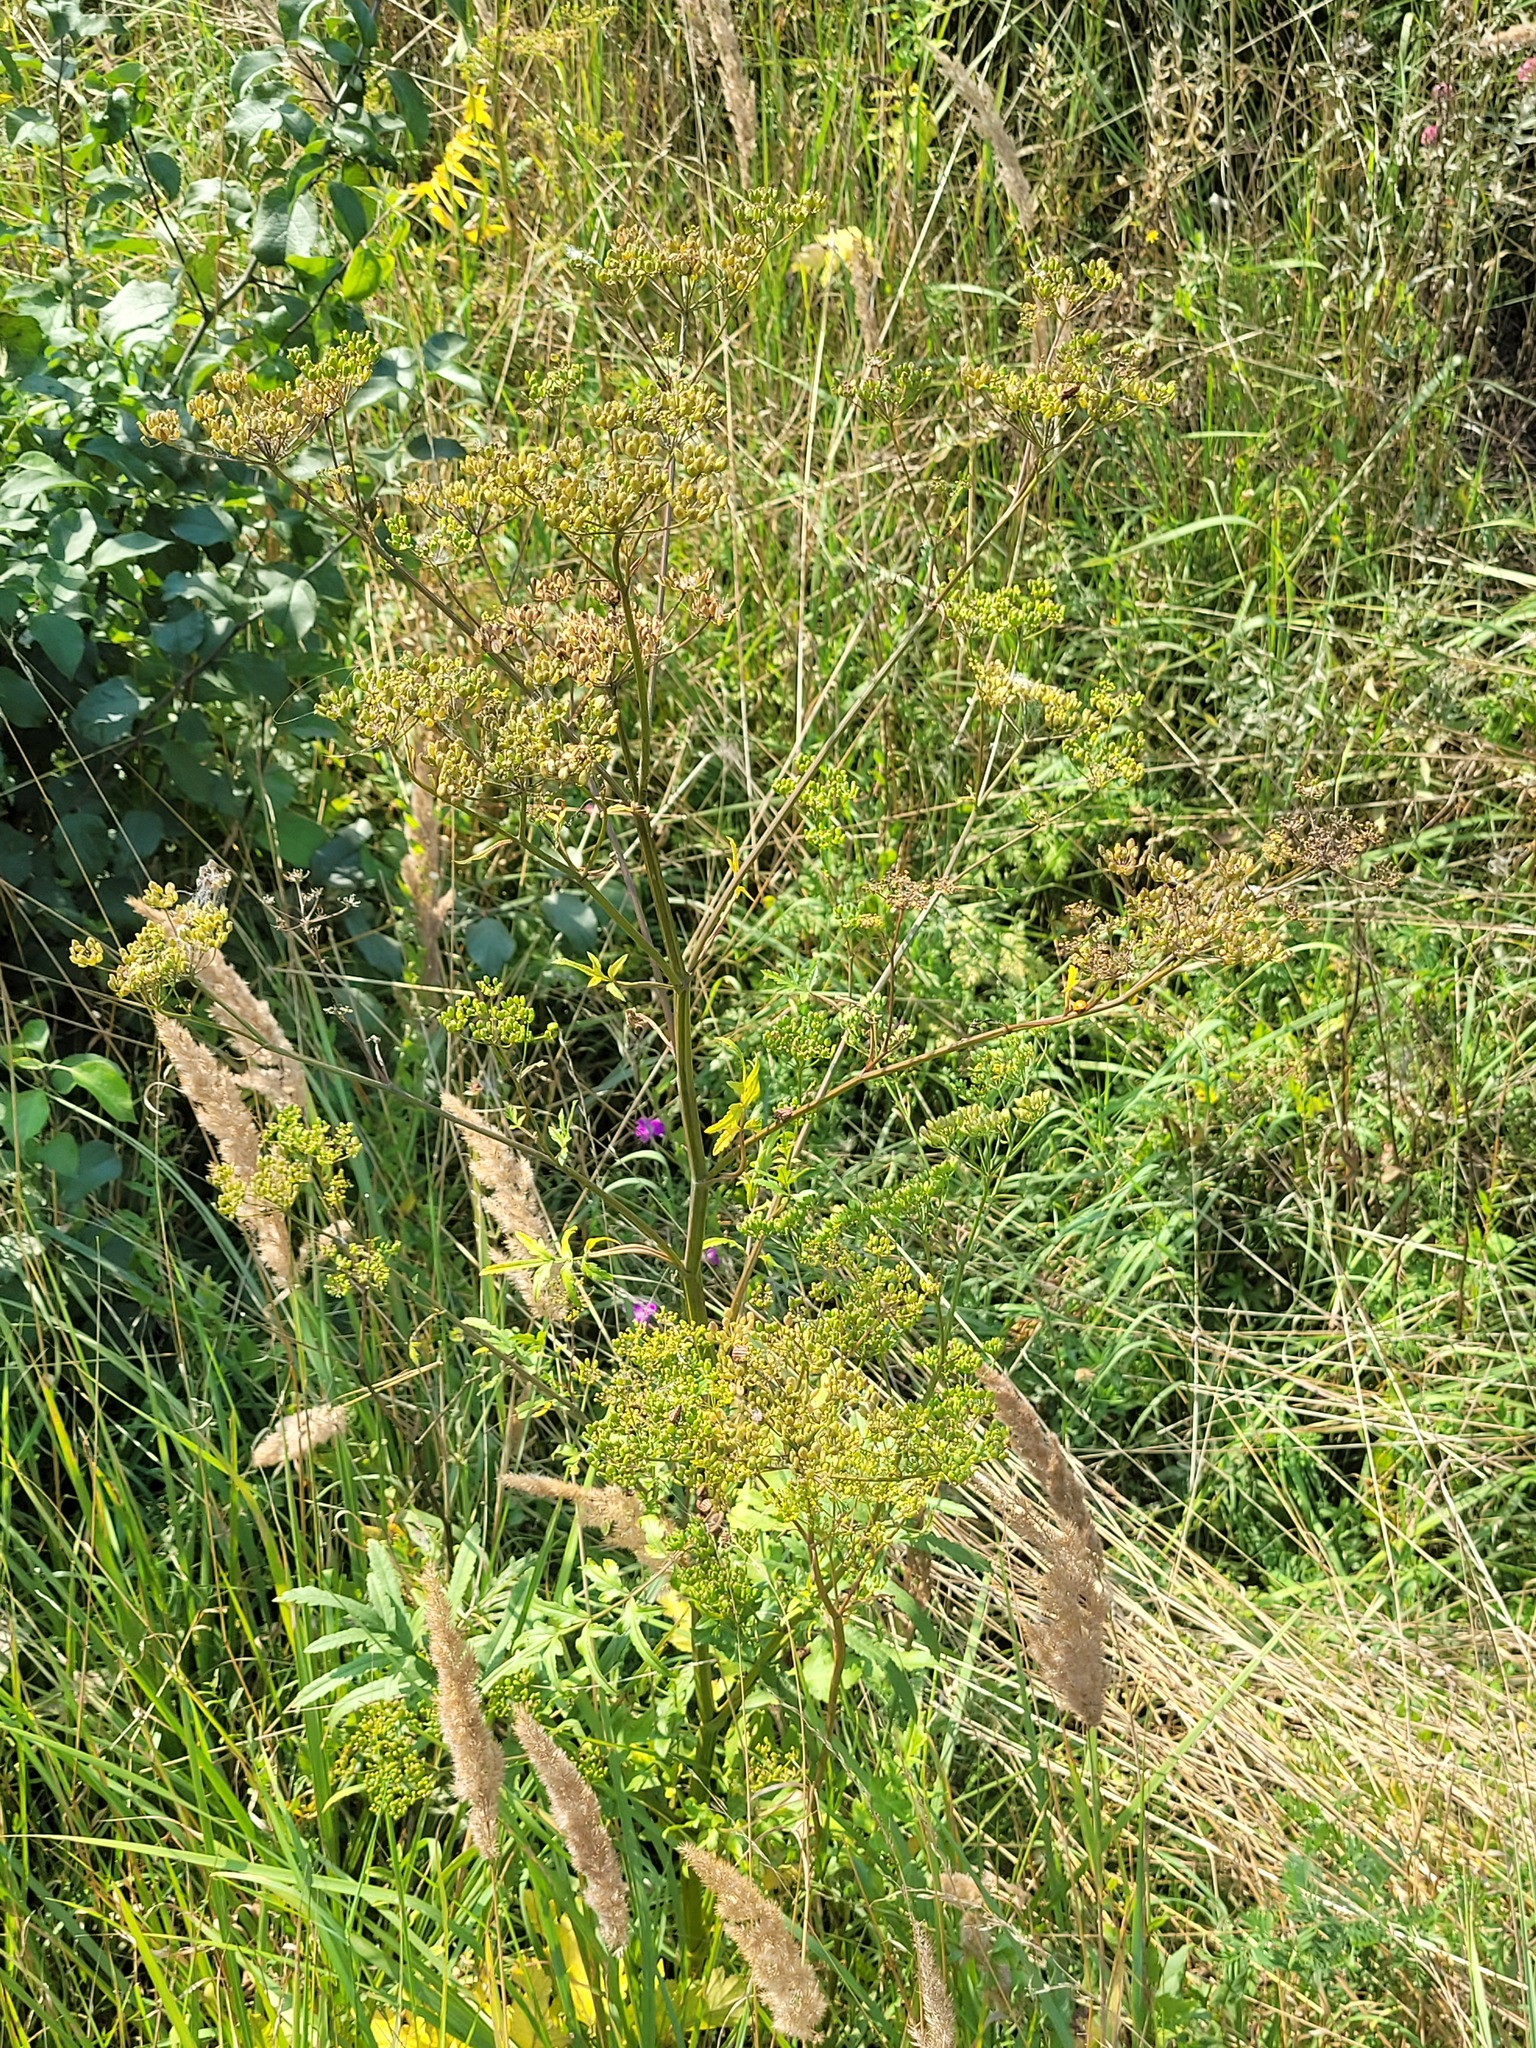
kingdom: Plantae
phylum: Tracheophyta
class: Magnoliopsida
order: Apiales
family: Apiaceae
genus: Pastinaca
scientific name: Pastinaca sativa
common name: Wild parsnip
